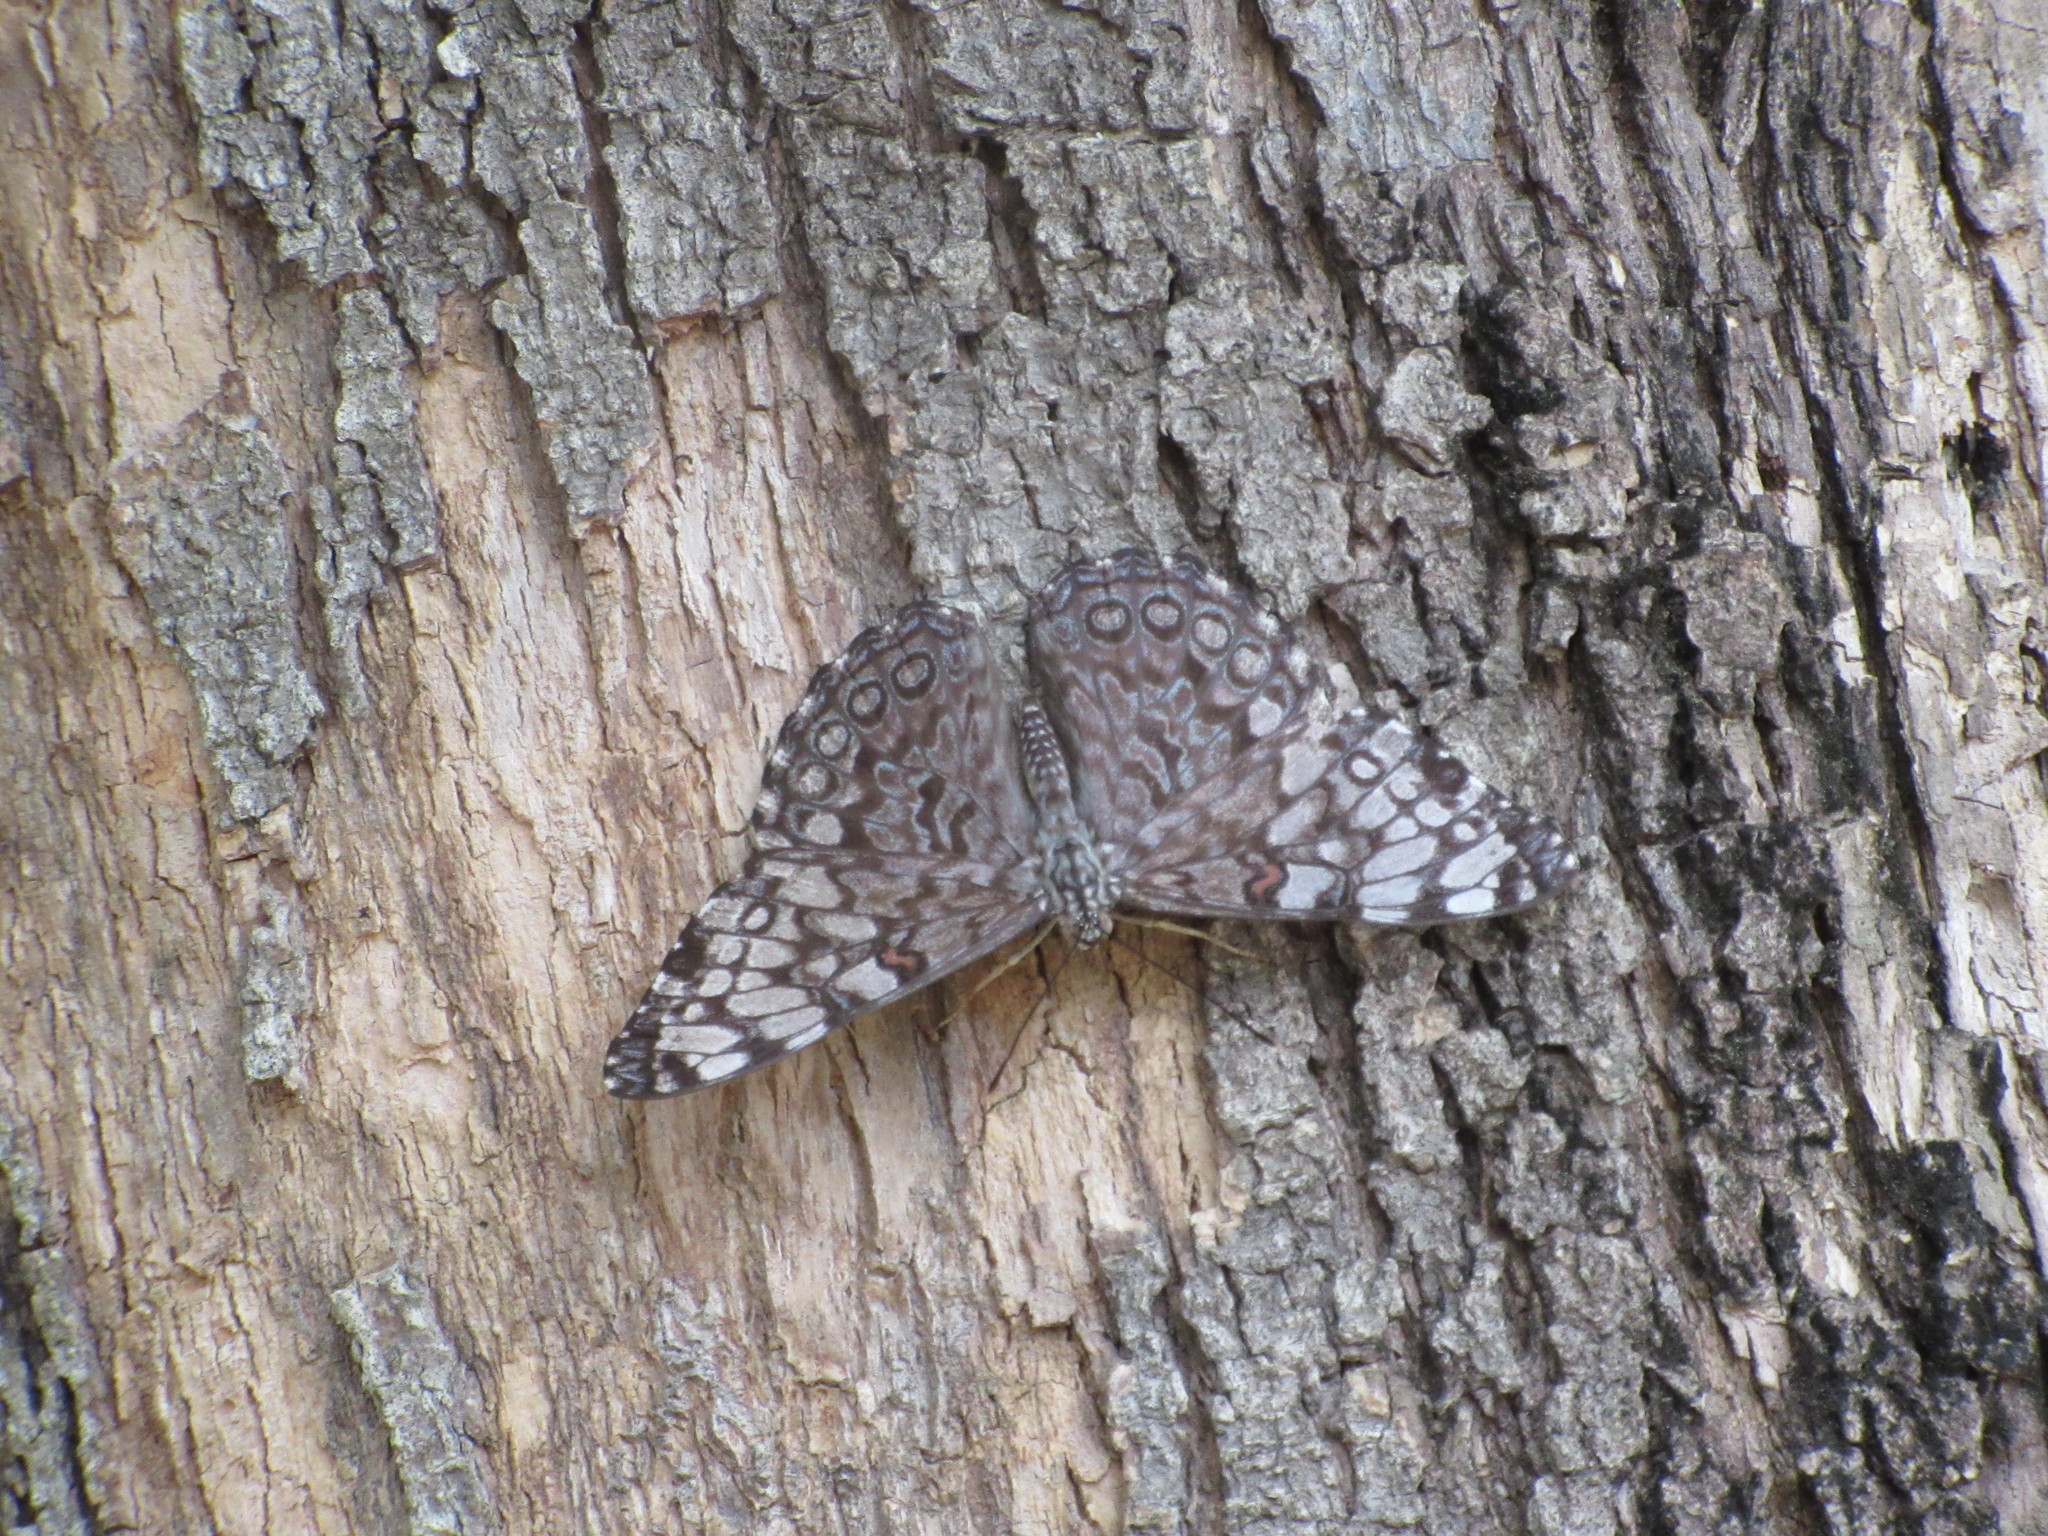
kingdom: Animalia
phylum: Arthropoda
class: Insecta
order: Lepidoptera
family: Nymphalidae
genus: Hamadryas
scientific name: Hamadryas guatemalena
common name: Guatemalan cracker
